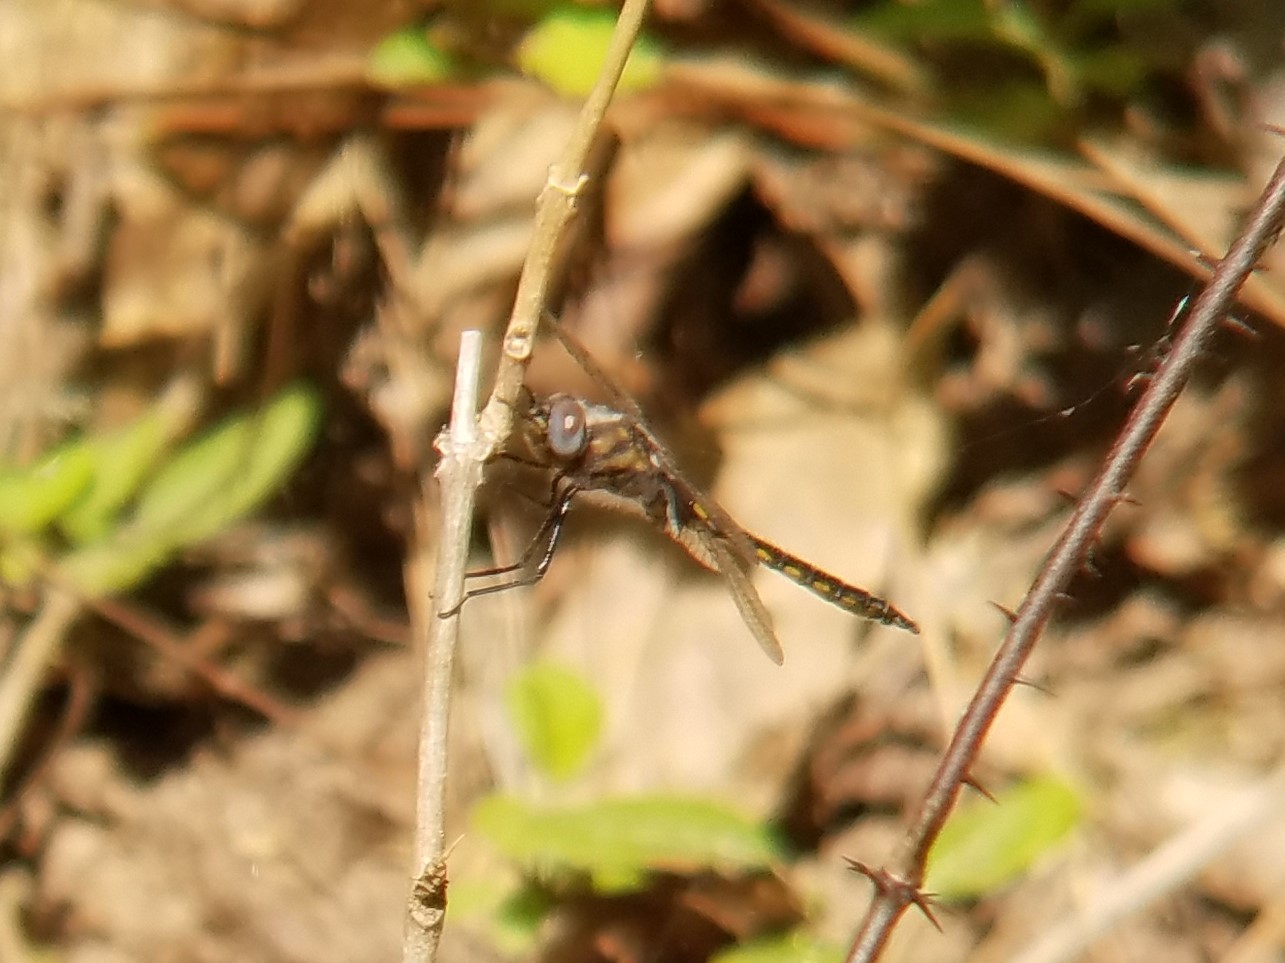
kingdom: Animalia
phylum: Arthropoda
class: Insecta
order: Odonata
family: Corduliidae
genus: Epitheca
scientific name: Epitheca cynosura
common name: Common baskettail
